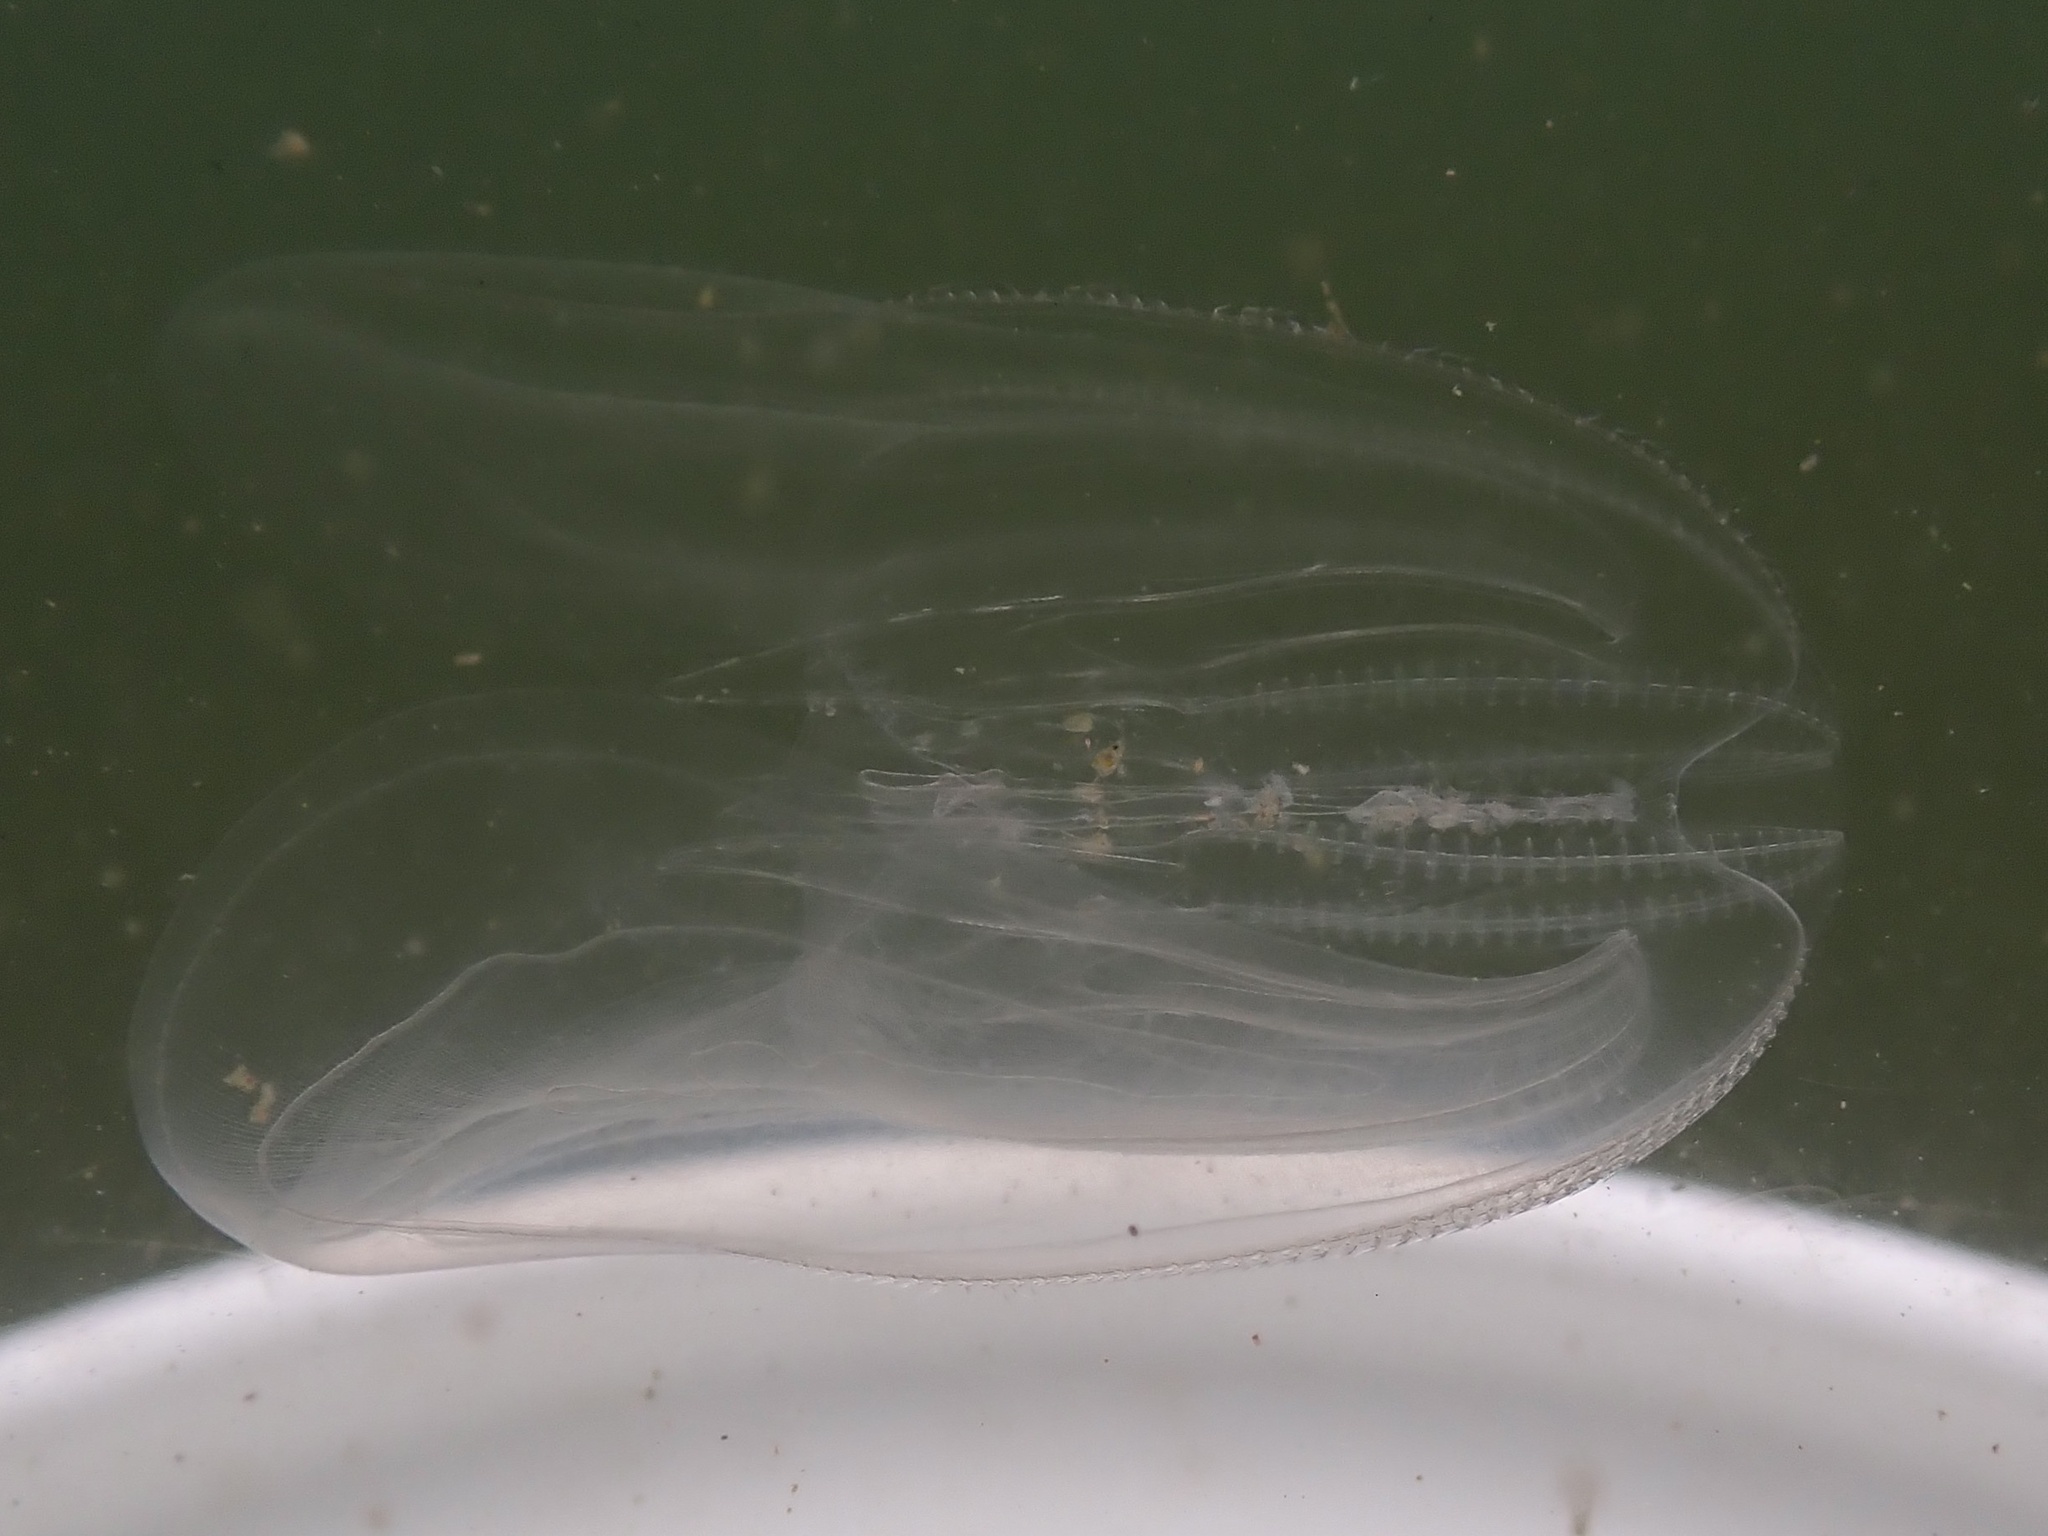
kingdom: Animalia
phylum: Ctenophora
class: Tentaculata
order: Lobata
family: Bolinopsidae
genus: Mnemiopsis
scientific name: Mnemiopsis leidyi
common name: American comb jelly
